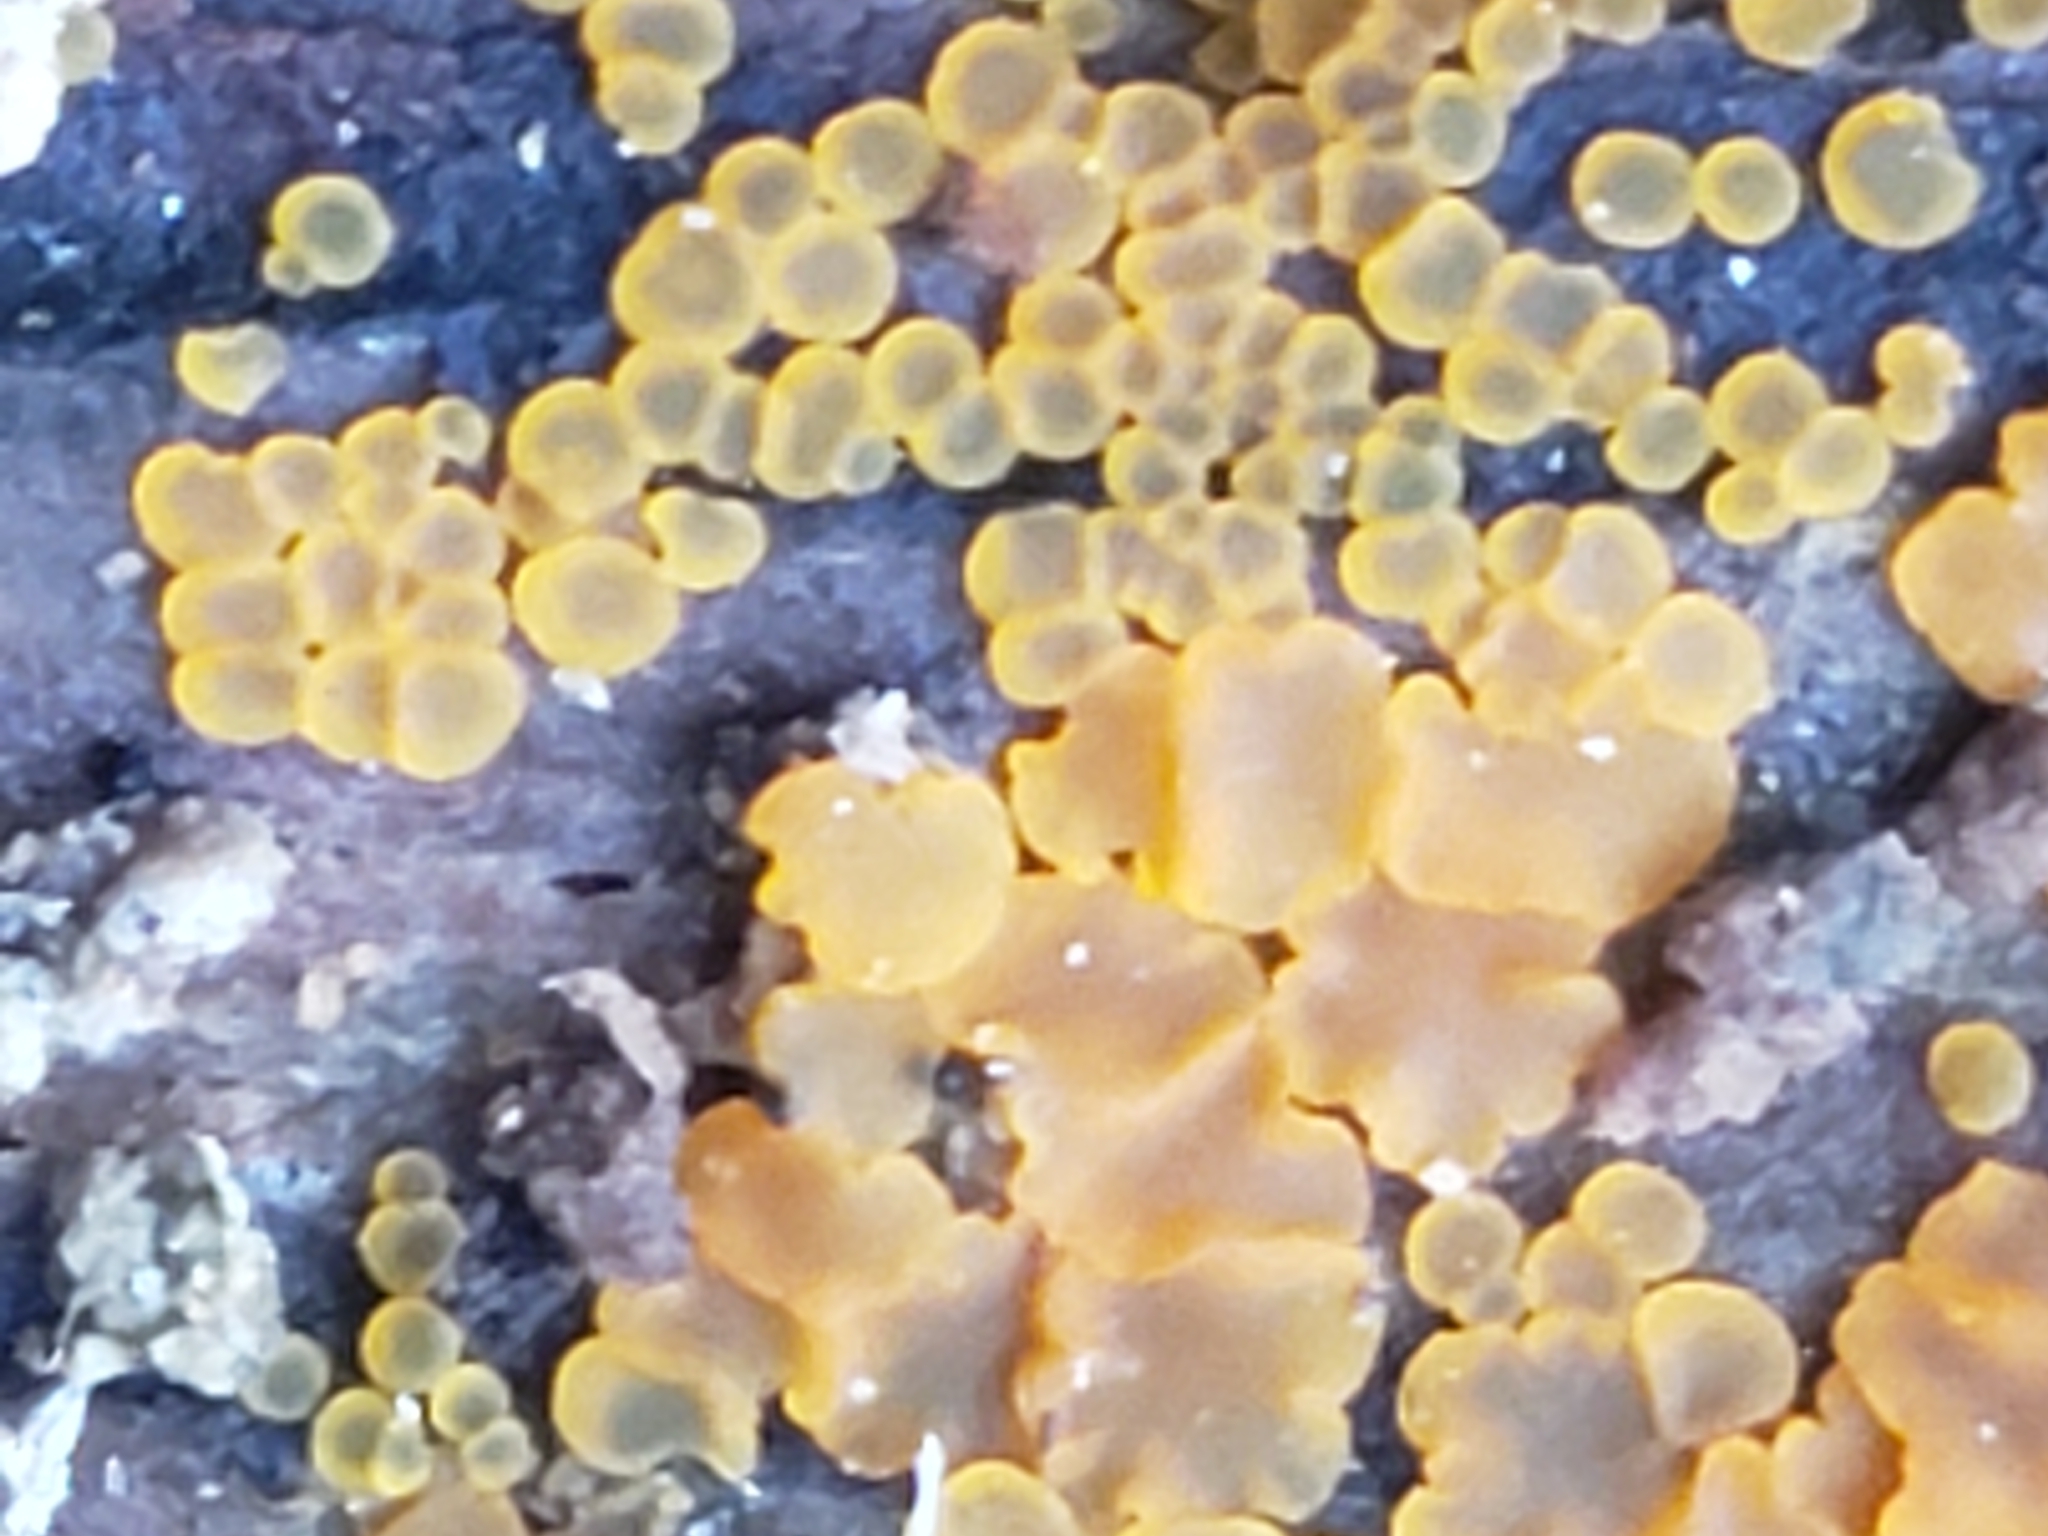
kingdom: Fungi
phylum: Ascomycota
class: Orbiliomycetes
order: Orbiliales
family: Orbiliaceae
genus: Orbilia
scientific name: Orbilia
